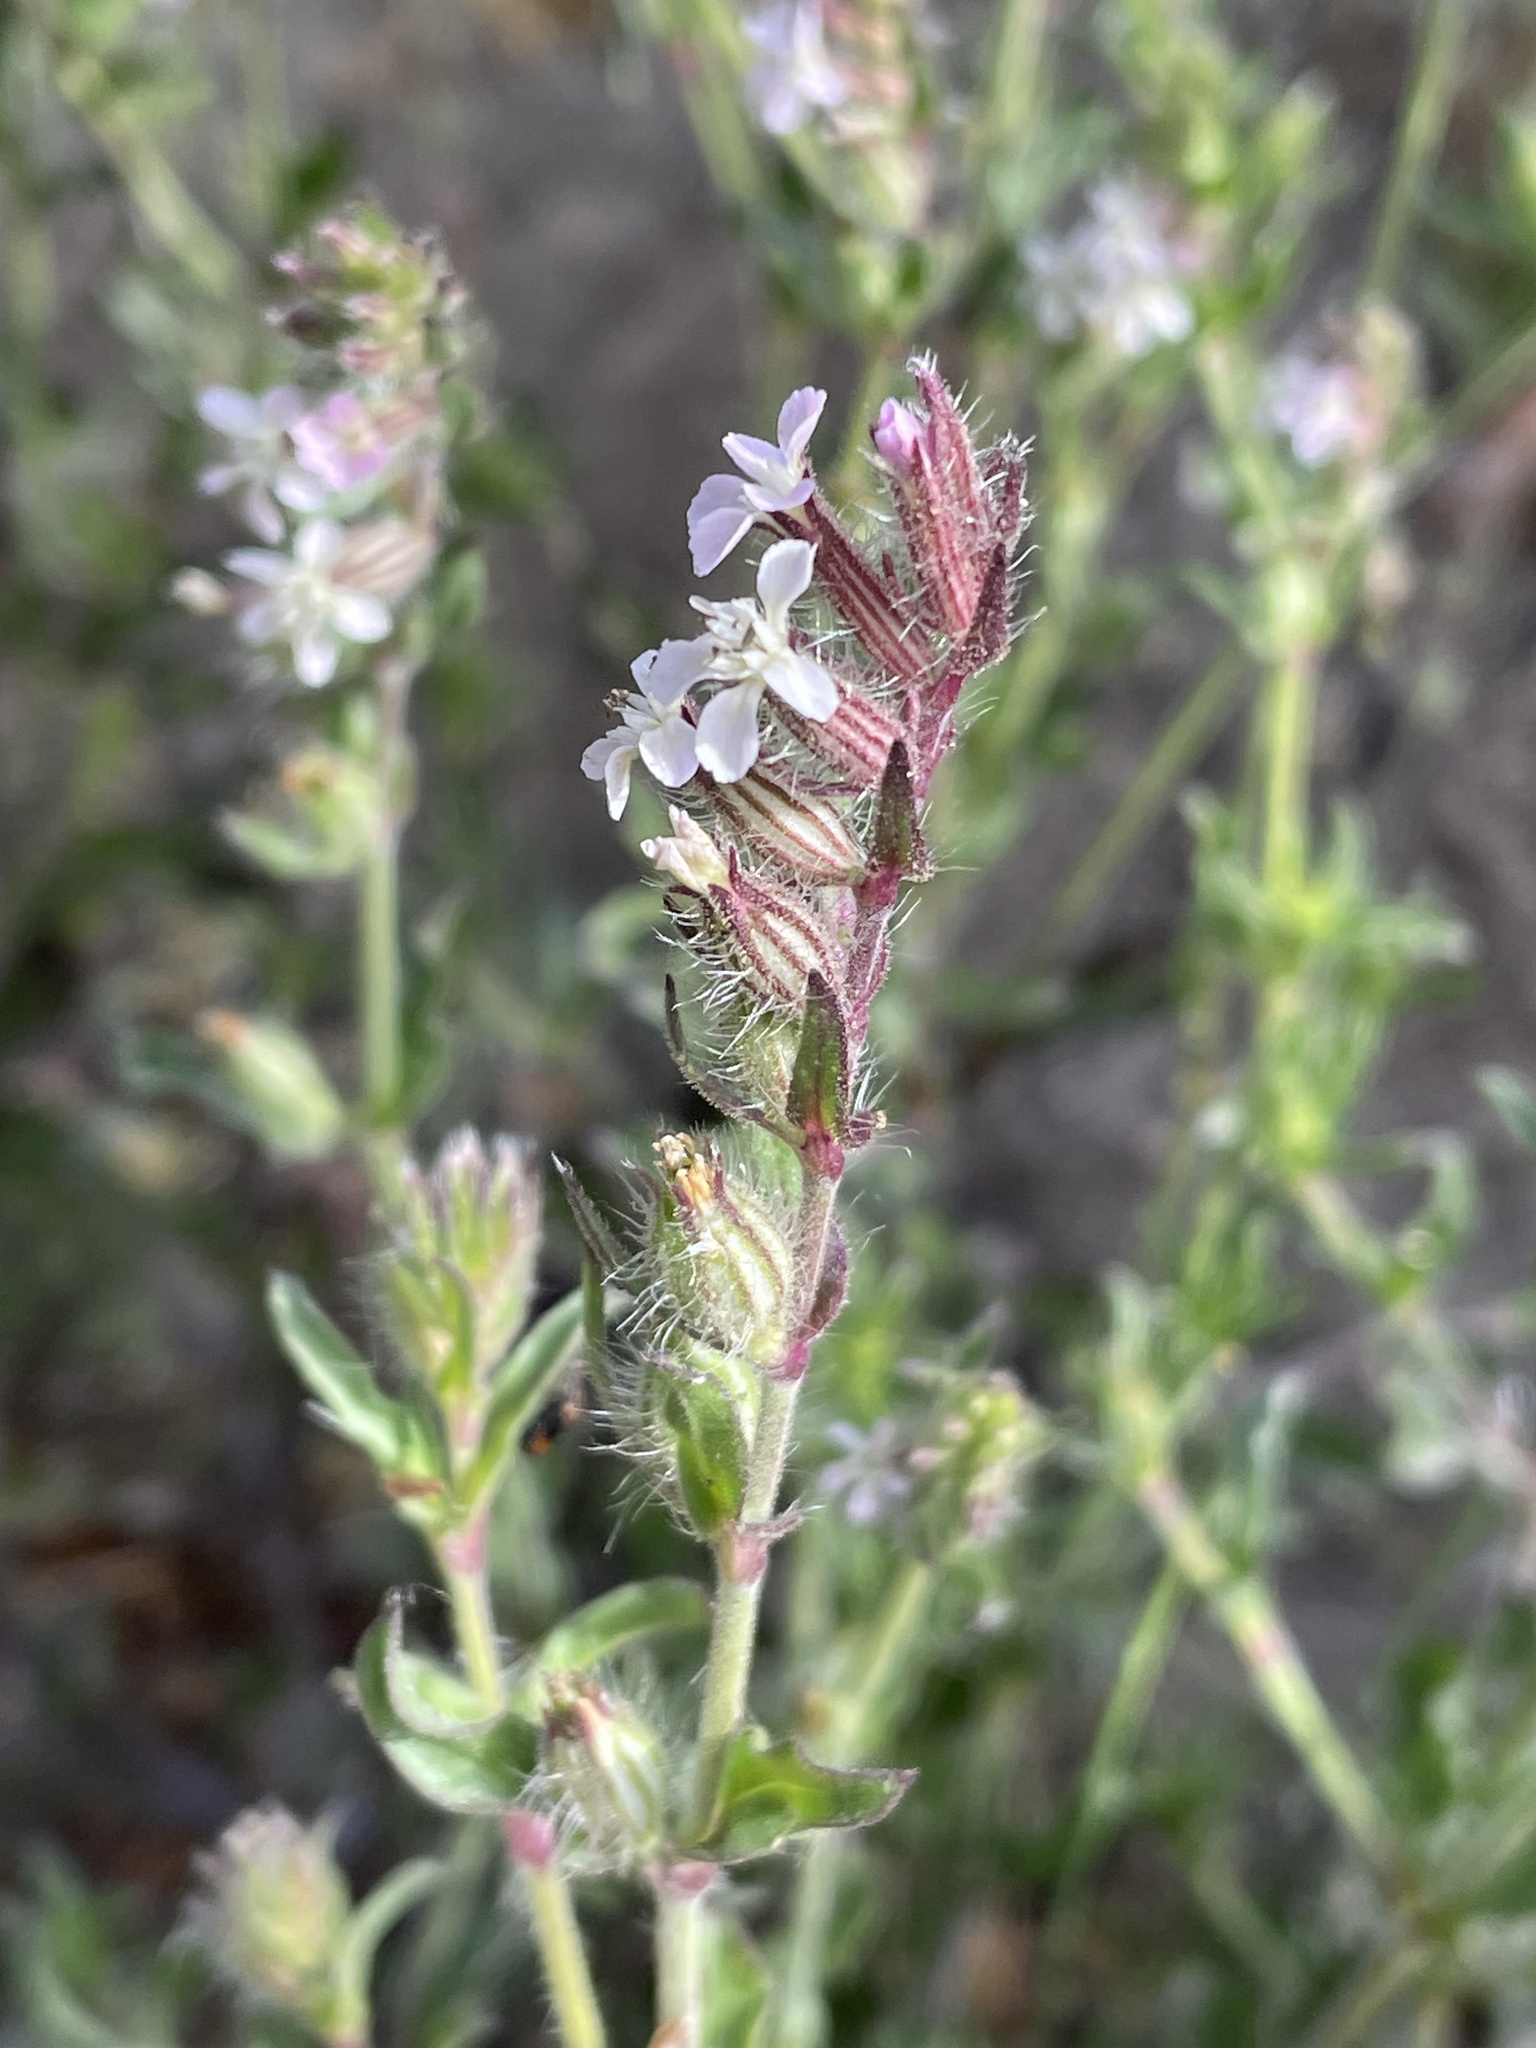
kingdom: Plantae
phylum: Tracheophyta
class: Magnoliopsida
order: Caryophyllales
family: Caryophyllaceae
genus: Silene
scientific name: Silene gallica
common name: Small-flowered catchfly
